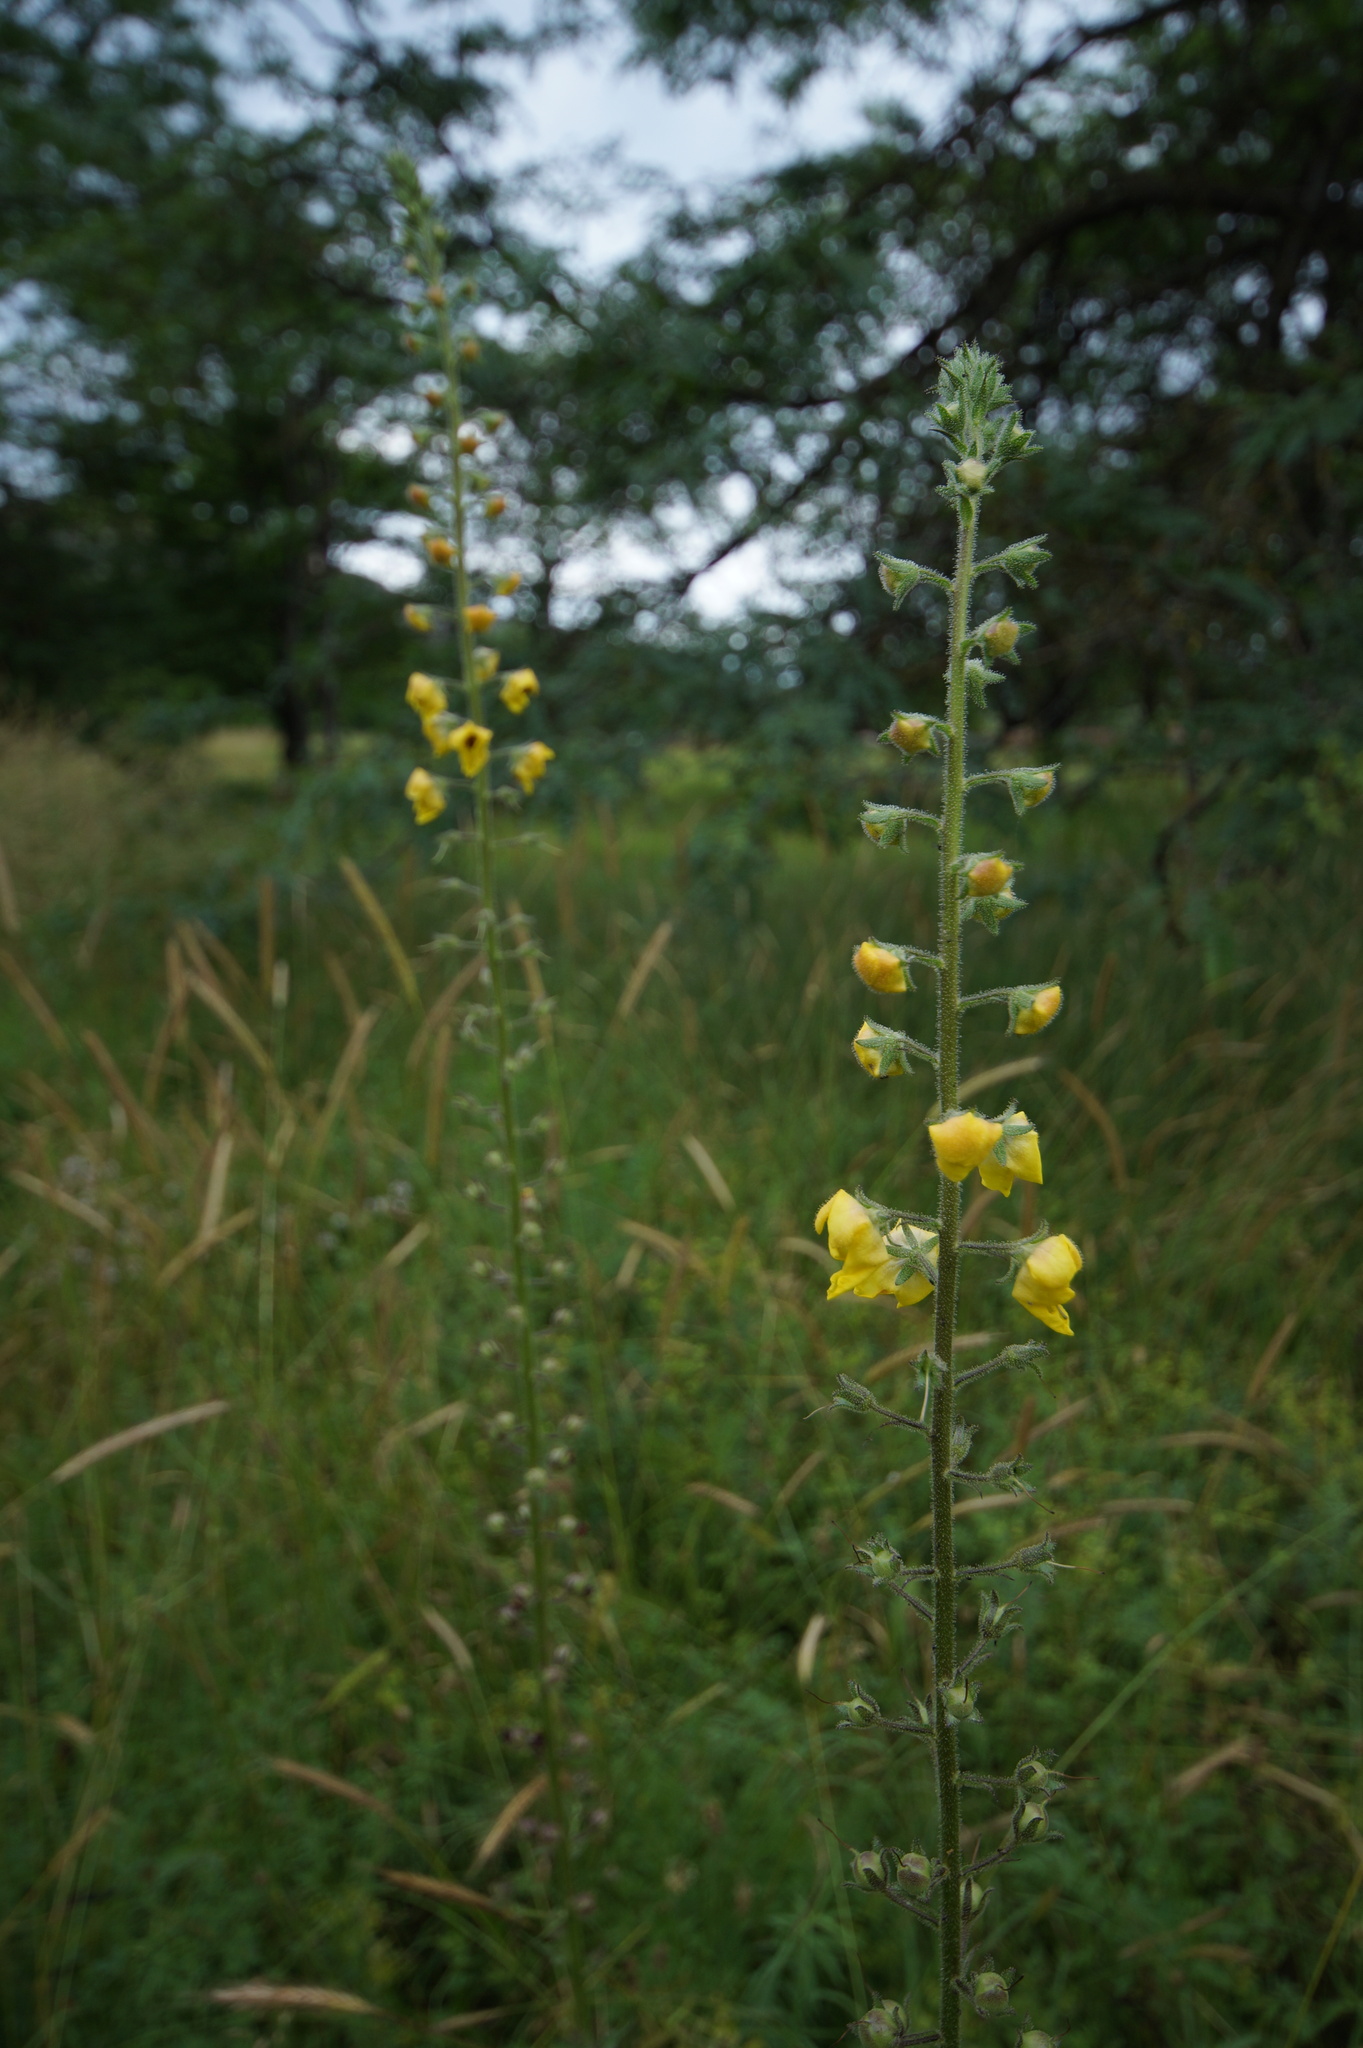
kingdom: Plantae
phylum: Tracheophyta
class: Magnoliopsida
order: Lamiales
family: Scrophulariaceae
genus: Verbascum
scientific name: Verbascum blattaria
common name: Moth mullein
